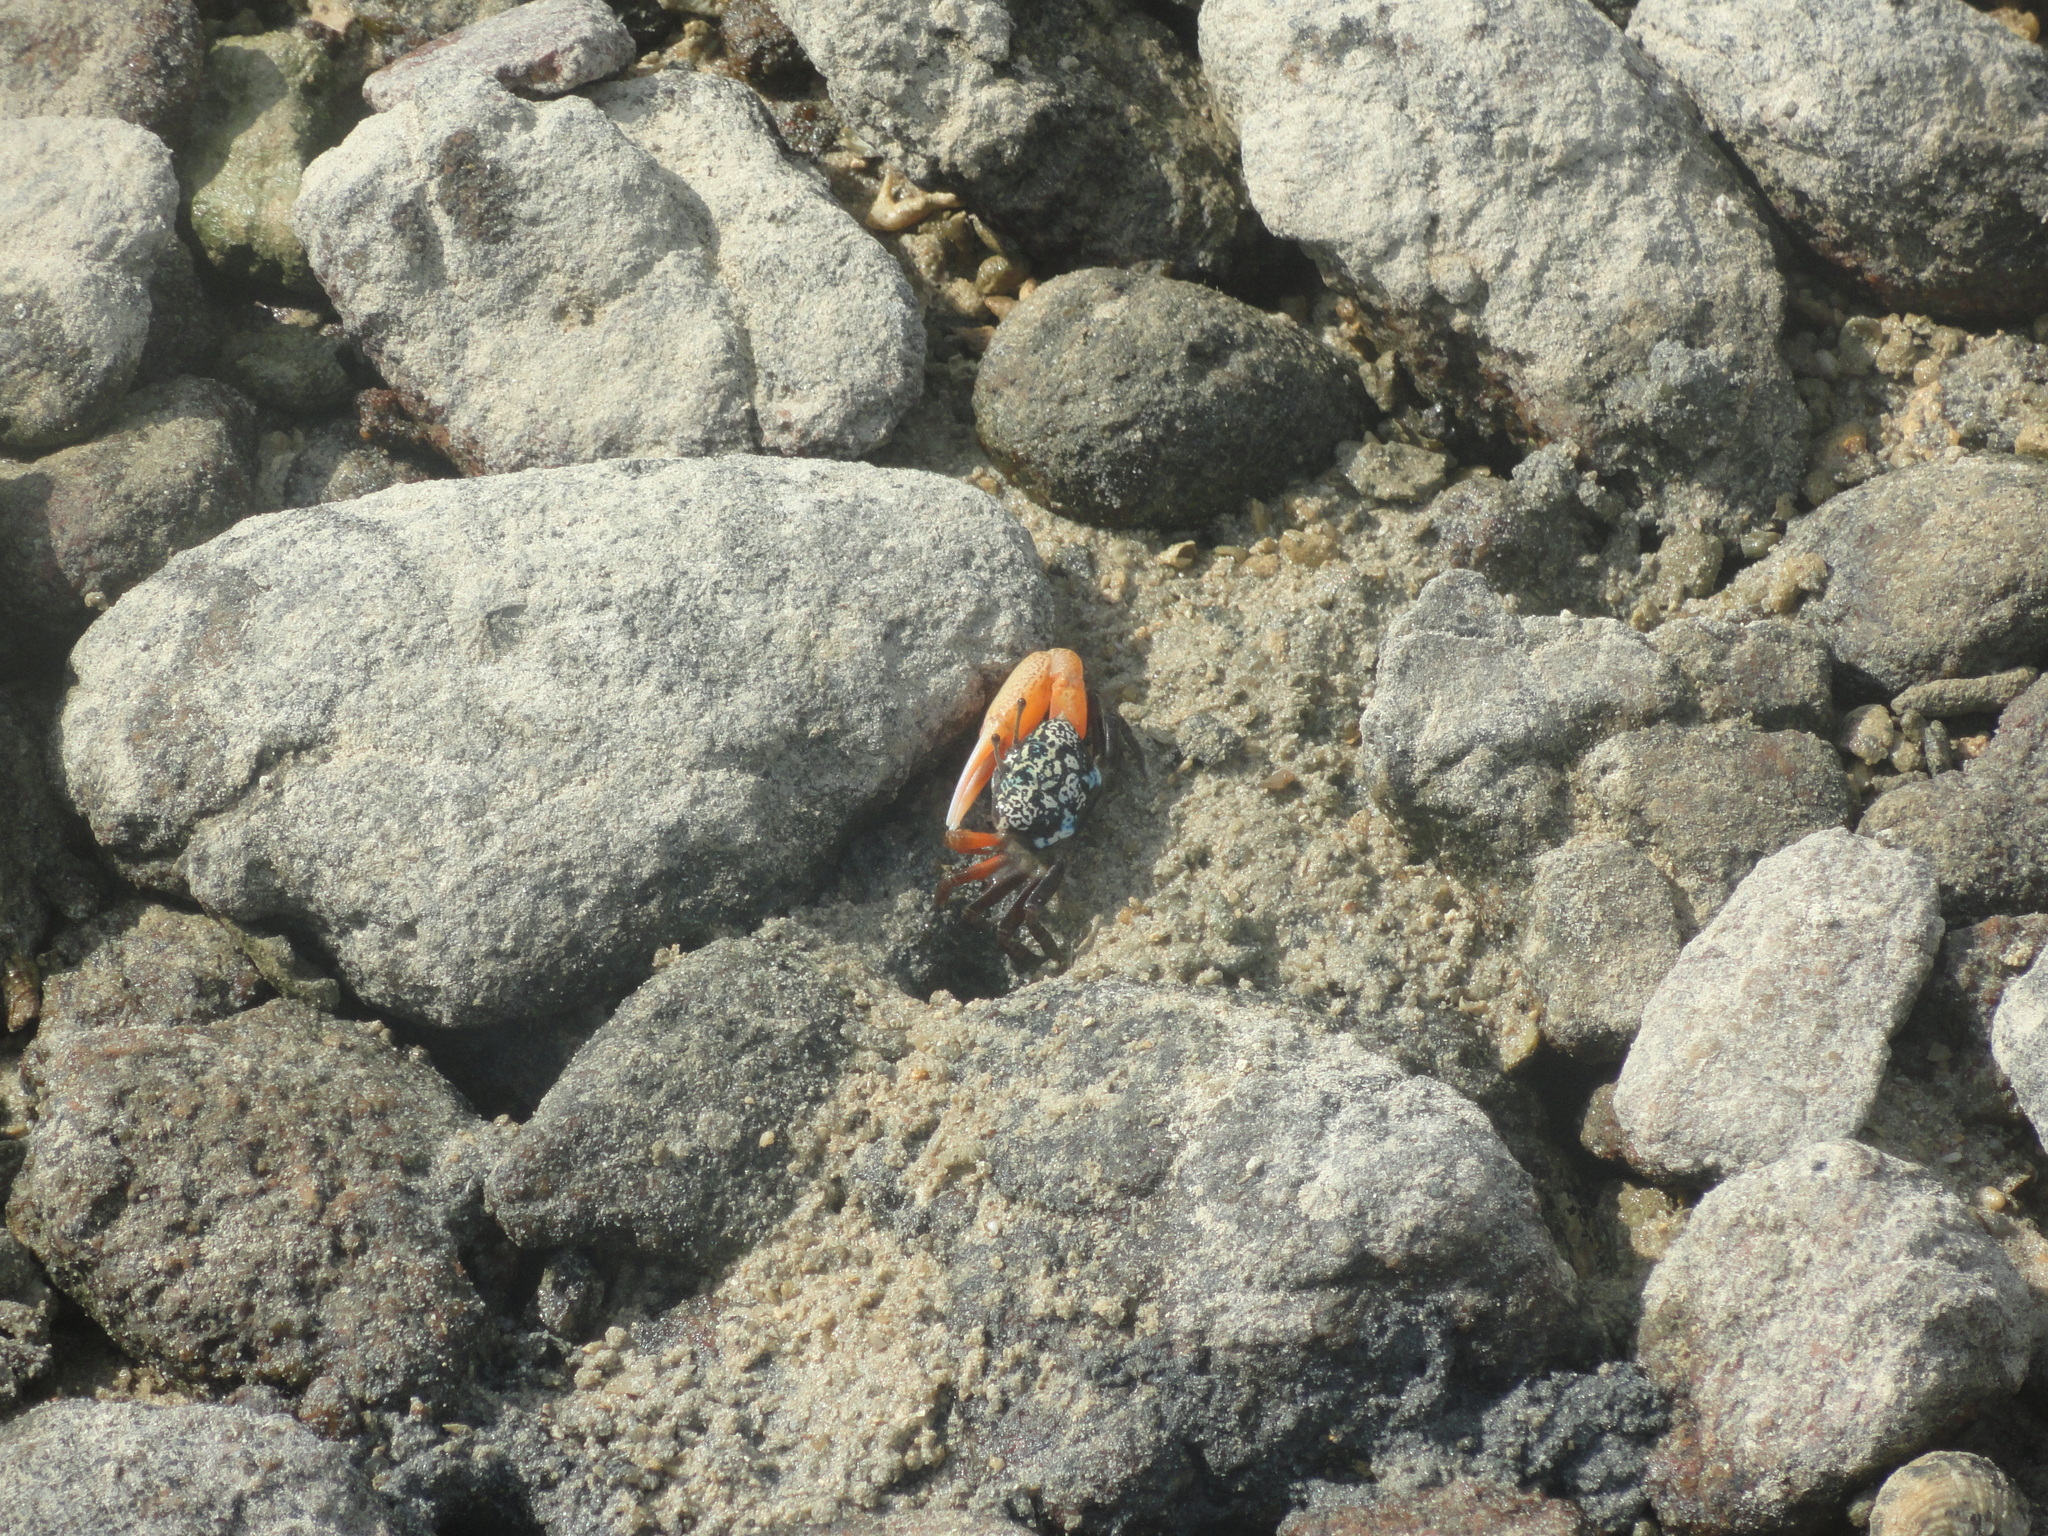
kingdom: Animalia
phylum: Arthropoda
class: Malacostraca
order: Decapoda
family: Ocypodidae
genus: Gelasimus
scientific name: Gelasimus tetragonon
